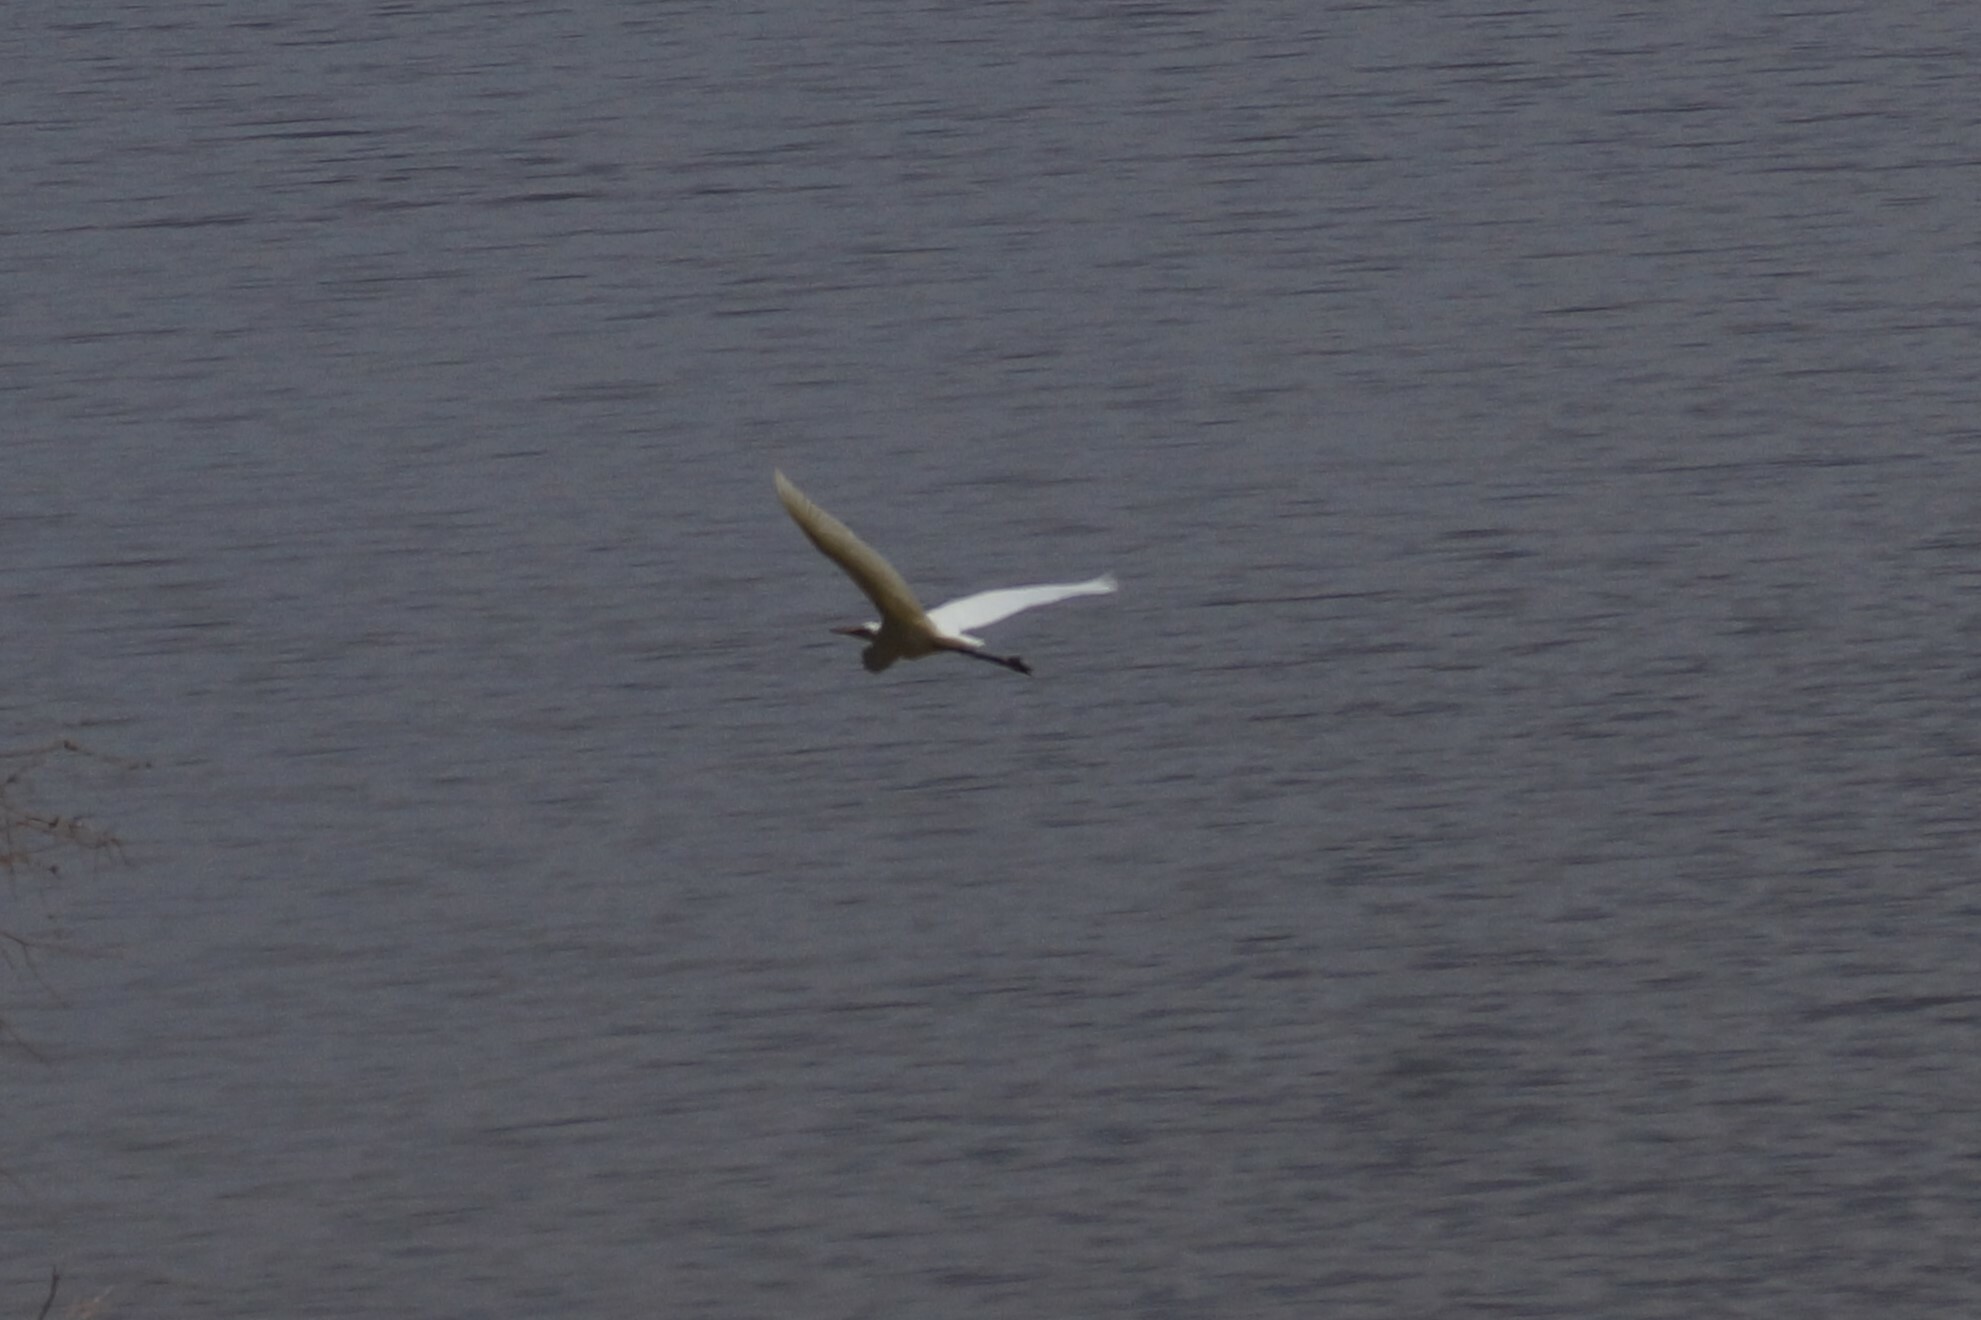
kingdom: Animalia
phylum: Chordata
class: Aves
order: Pelecaniformes
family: Ardeidae
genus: Ardea
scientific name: Ardea alba
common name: Great egret
